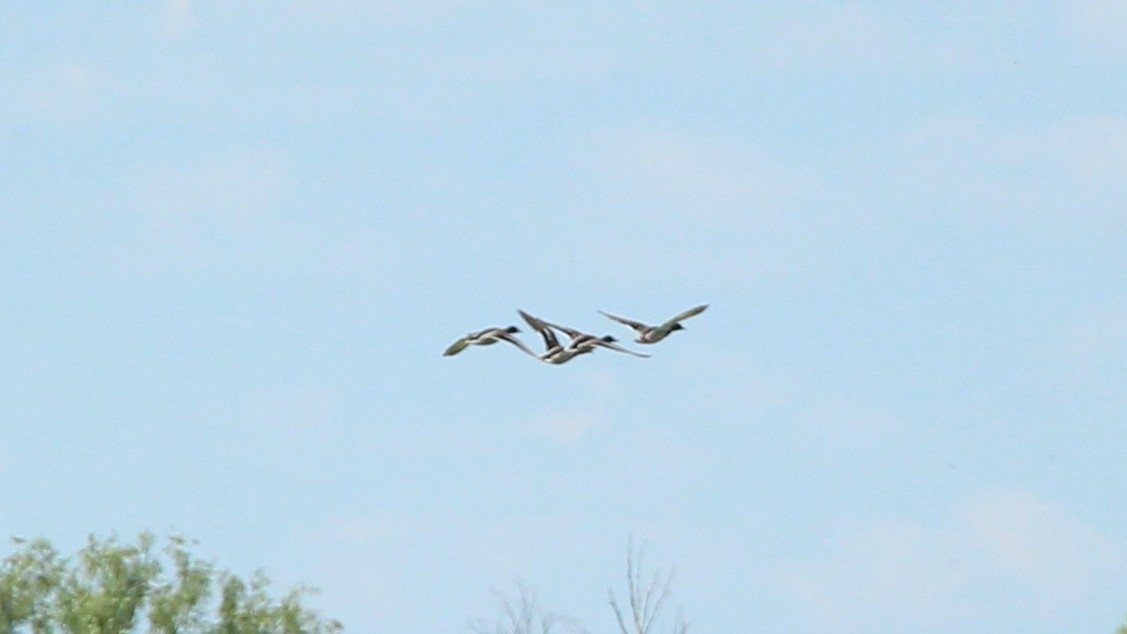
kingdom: Animalia
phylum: Chordata
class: Aves
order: Anseriformes
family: Anatidae
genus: Anas
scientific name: Anas platyrhynchos
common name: Mallard
